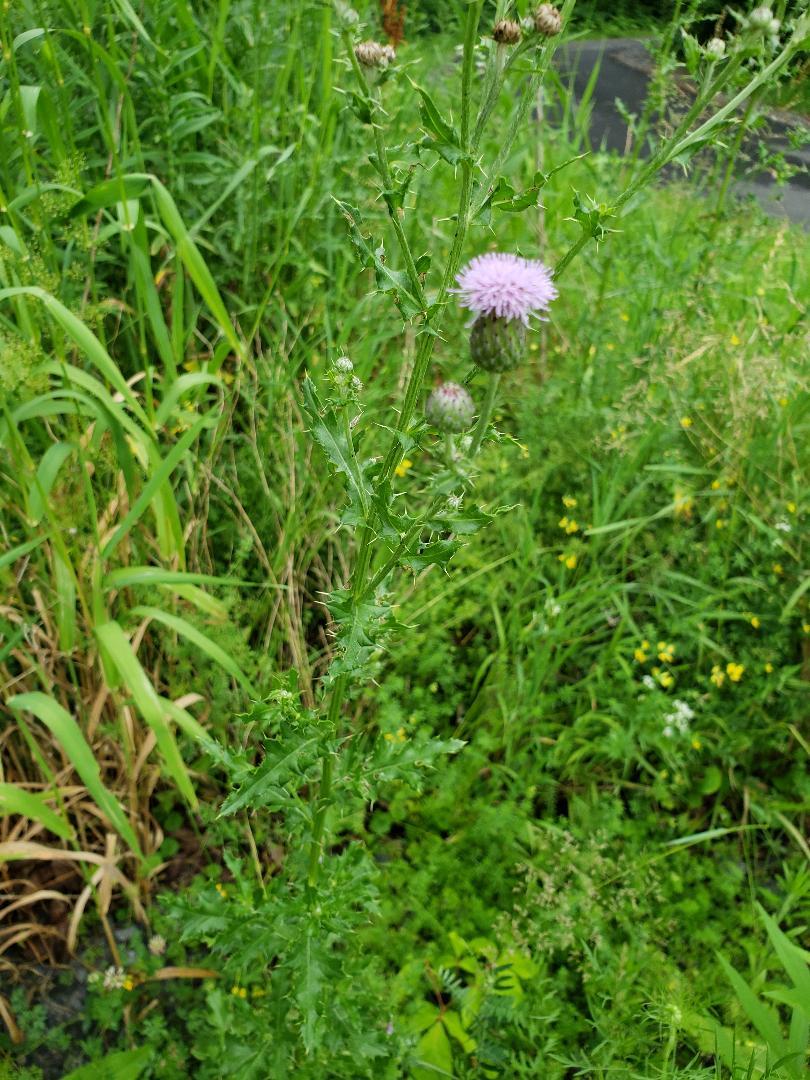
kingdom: Plantae
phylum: Tracheophyta
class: Magnoliopsida
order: Asterales
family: Asteraceae
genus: Cirsium
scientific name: Cirsium arvense
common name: Creeping thistle
